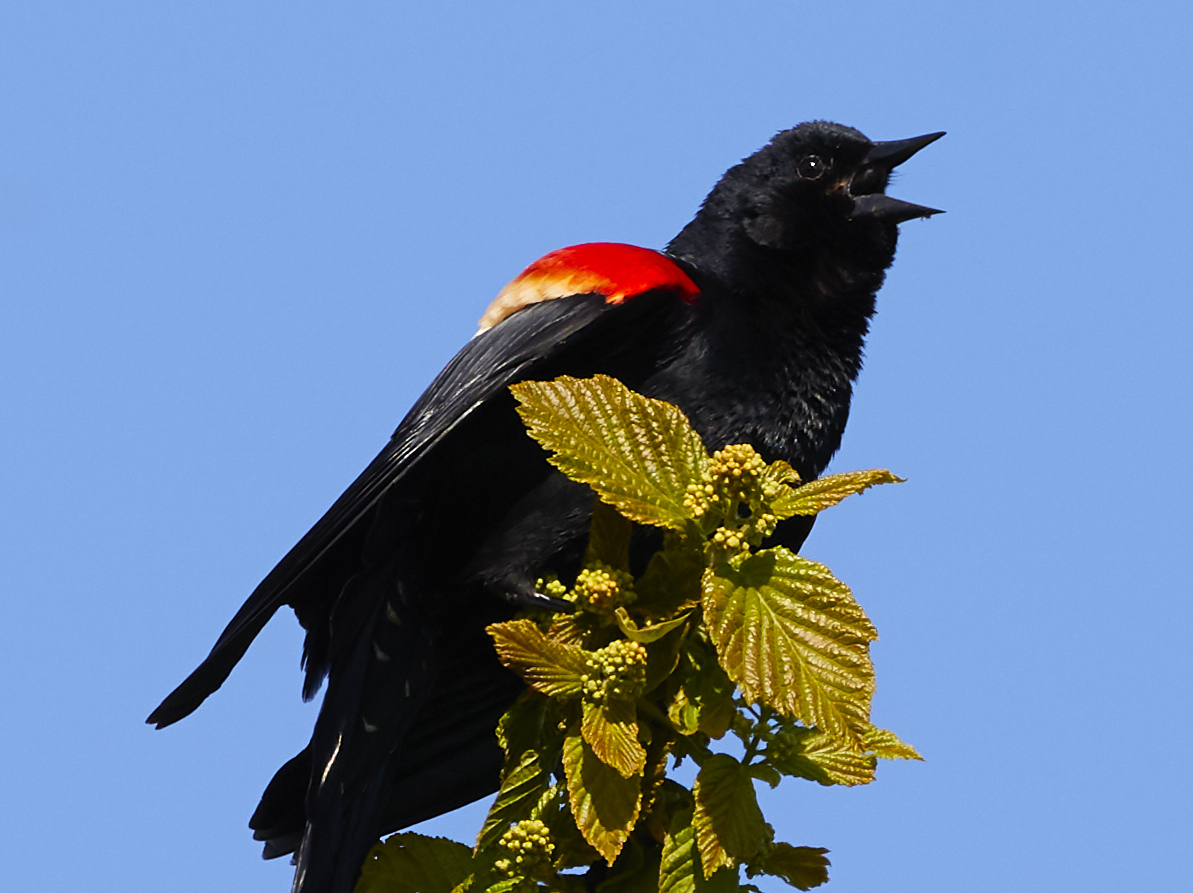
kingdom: Animalia
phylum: Chordata
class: Aves
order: Passeriformes
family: Icteridae
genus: Agelaius
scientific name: Agelaius phoeniceus
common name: Red-winged blackbird
